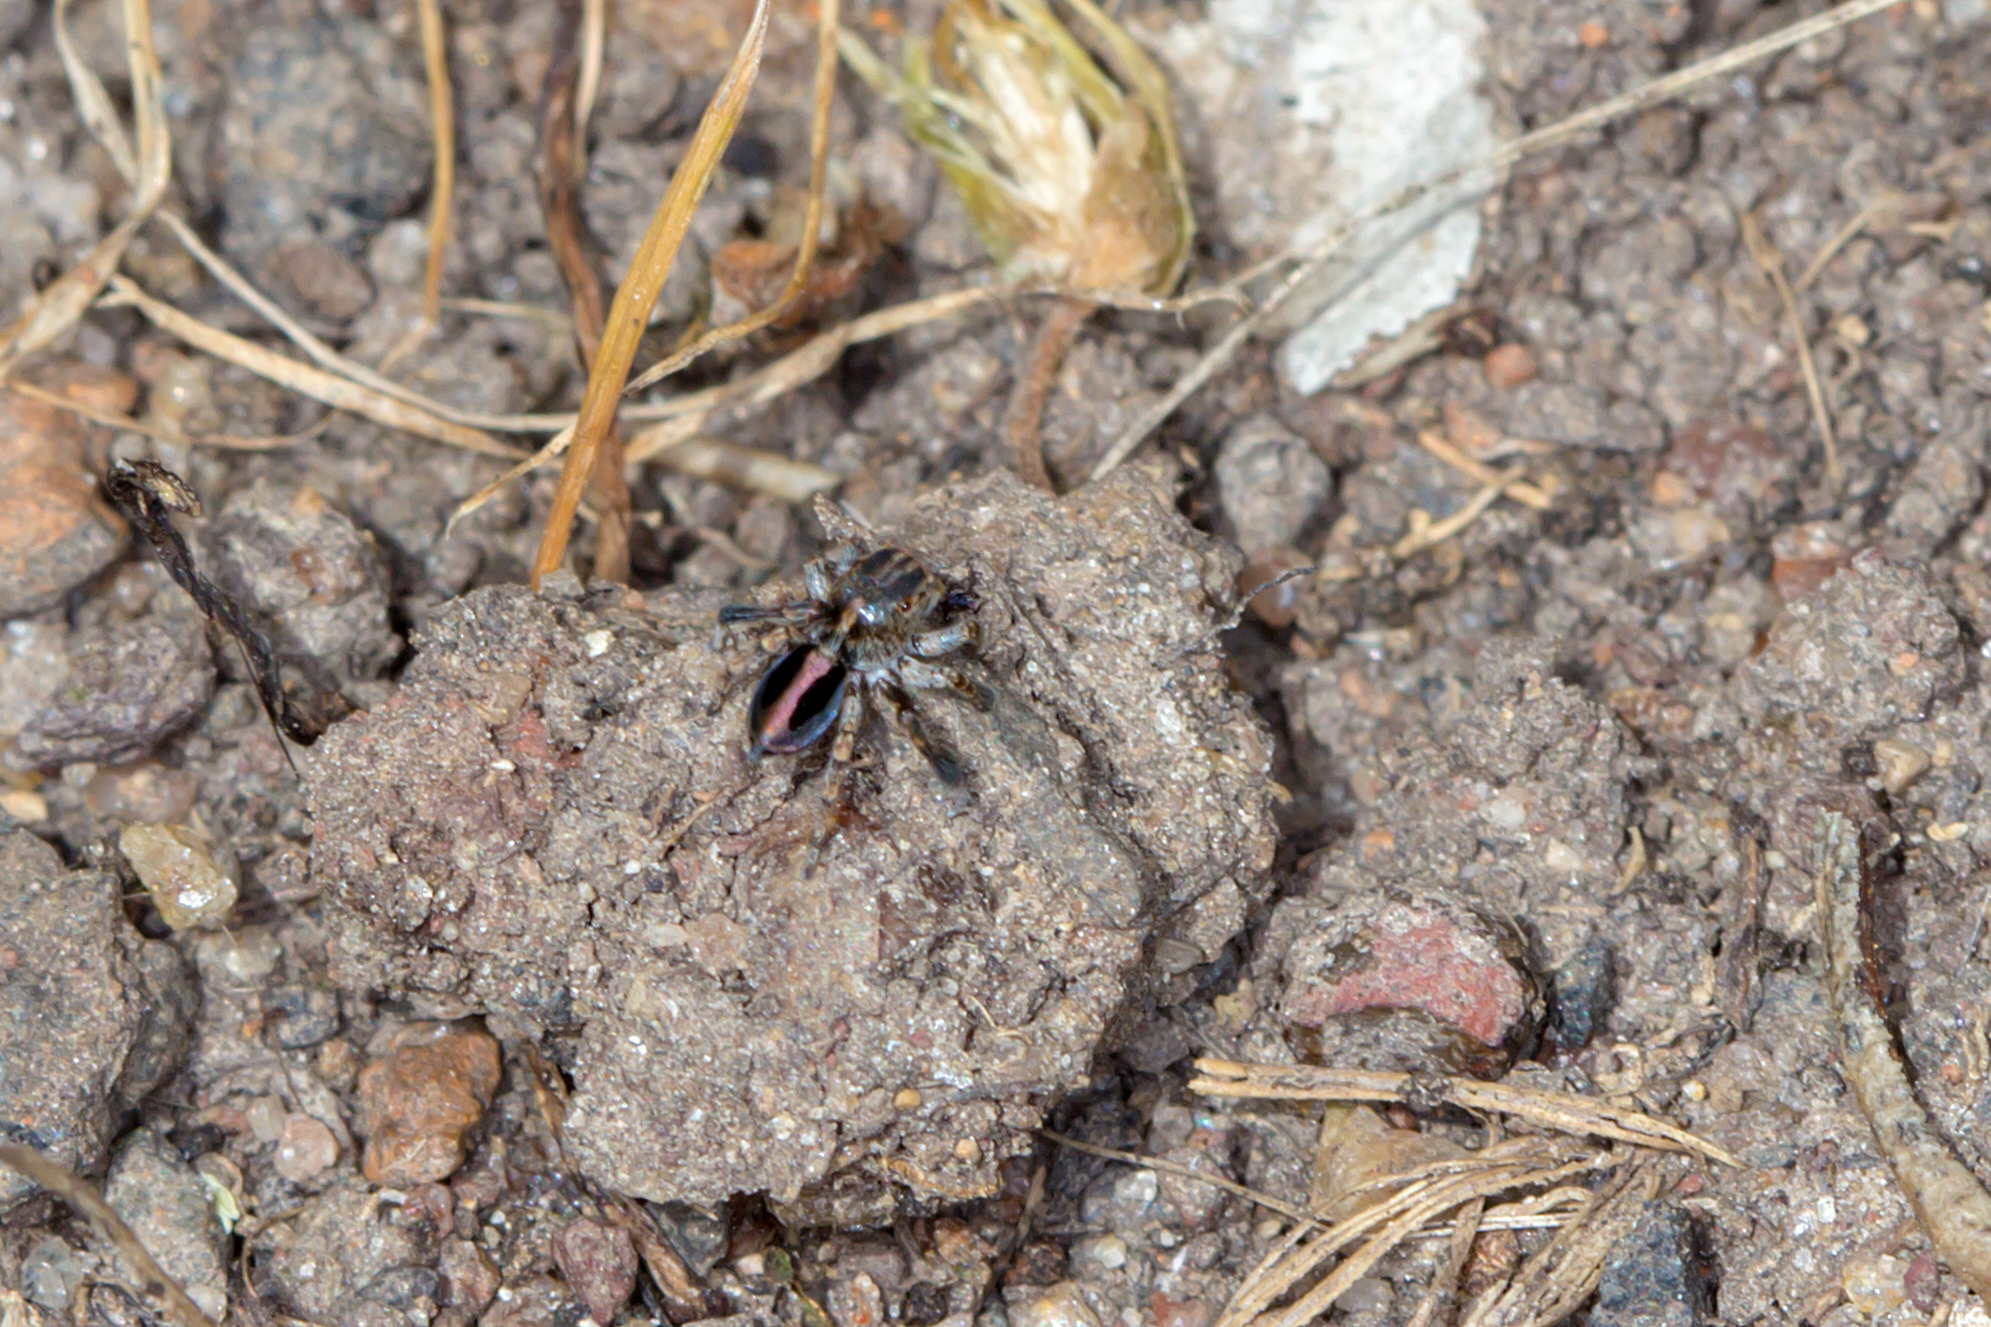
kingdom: Animalia
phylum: Arthropoda
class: Arachnida
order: Araneae
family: Salticidae
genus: Maratus
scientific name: Maratus chrysomelas
